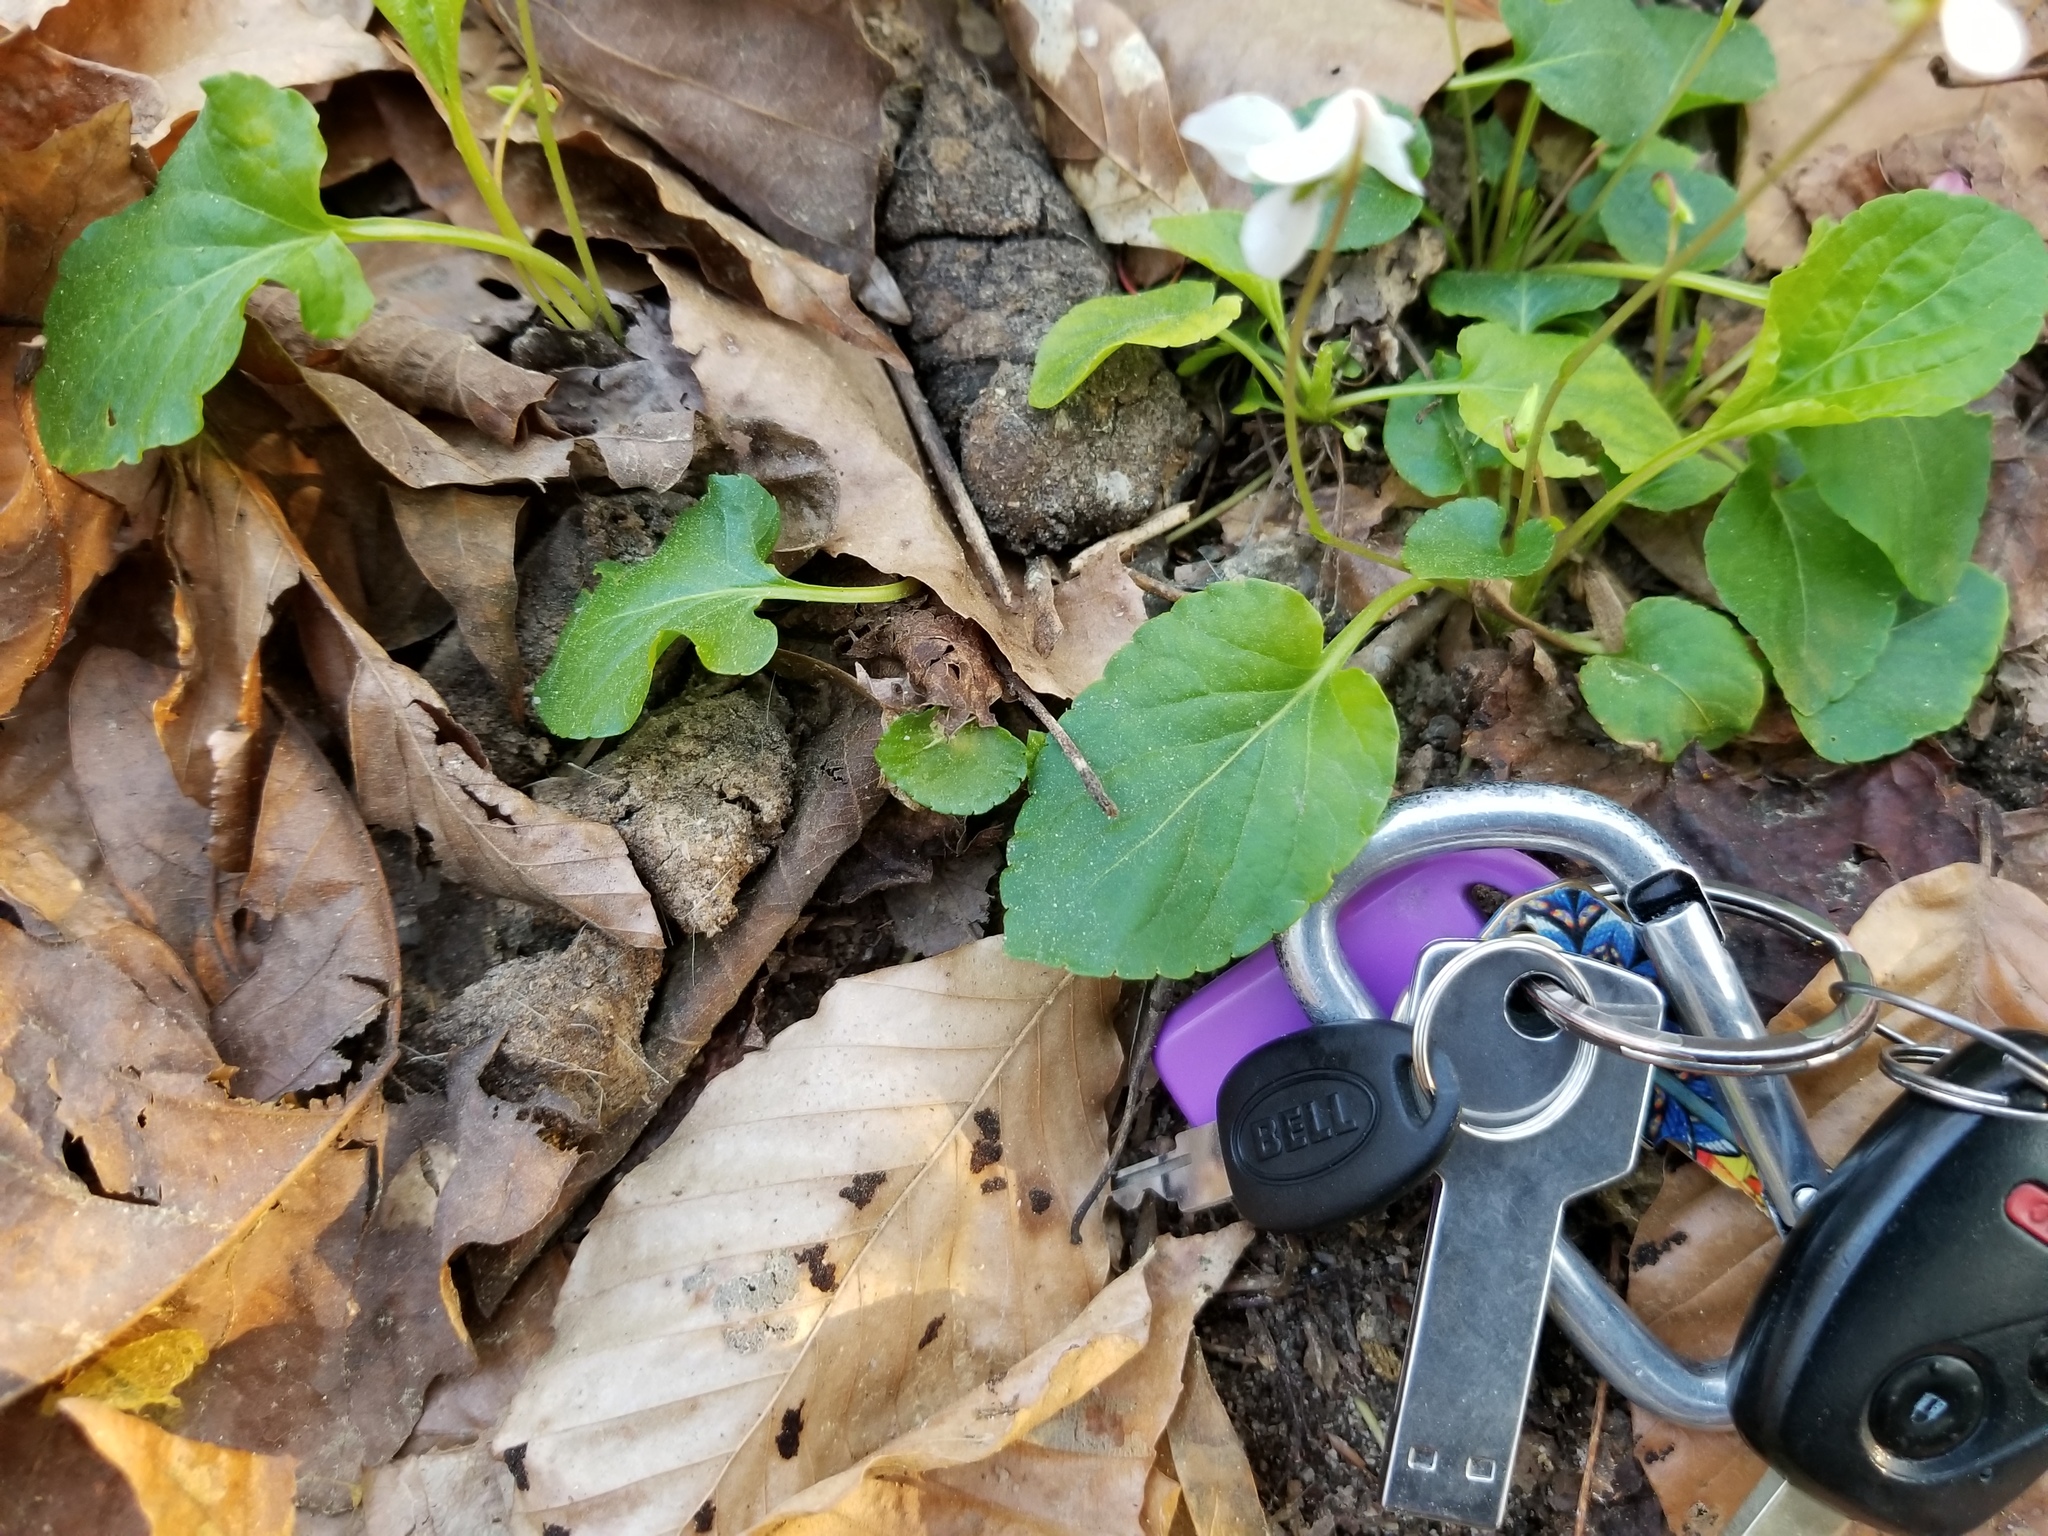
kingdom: Plantae
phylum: Tracheophyta
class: Magnoliopsida
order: Malpighiales
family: Violaceae
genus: Viola
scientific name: Viola primulifolia
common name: Primrose-leaf violet
